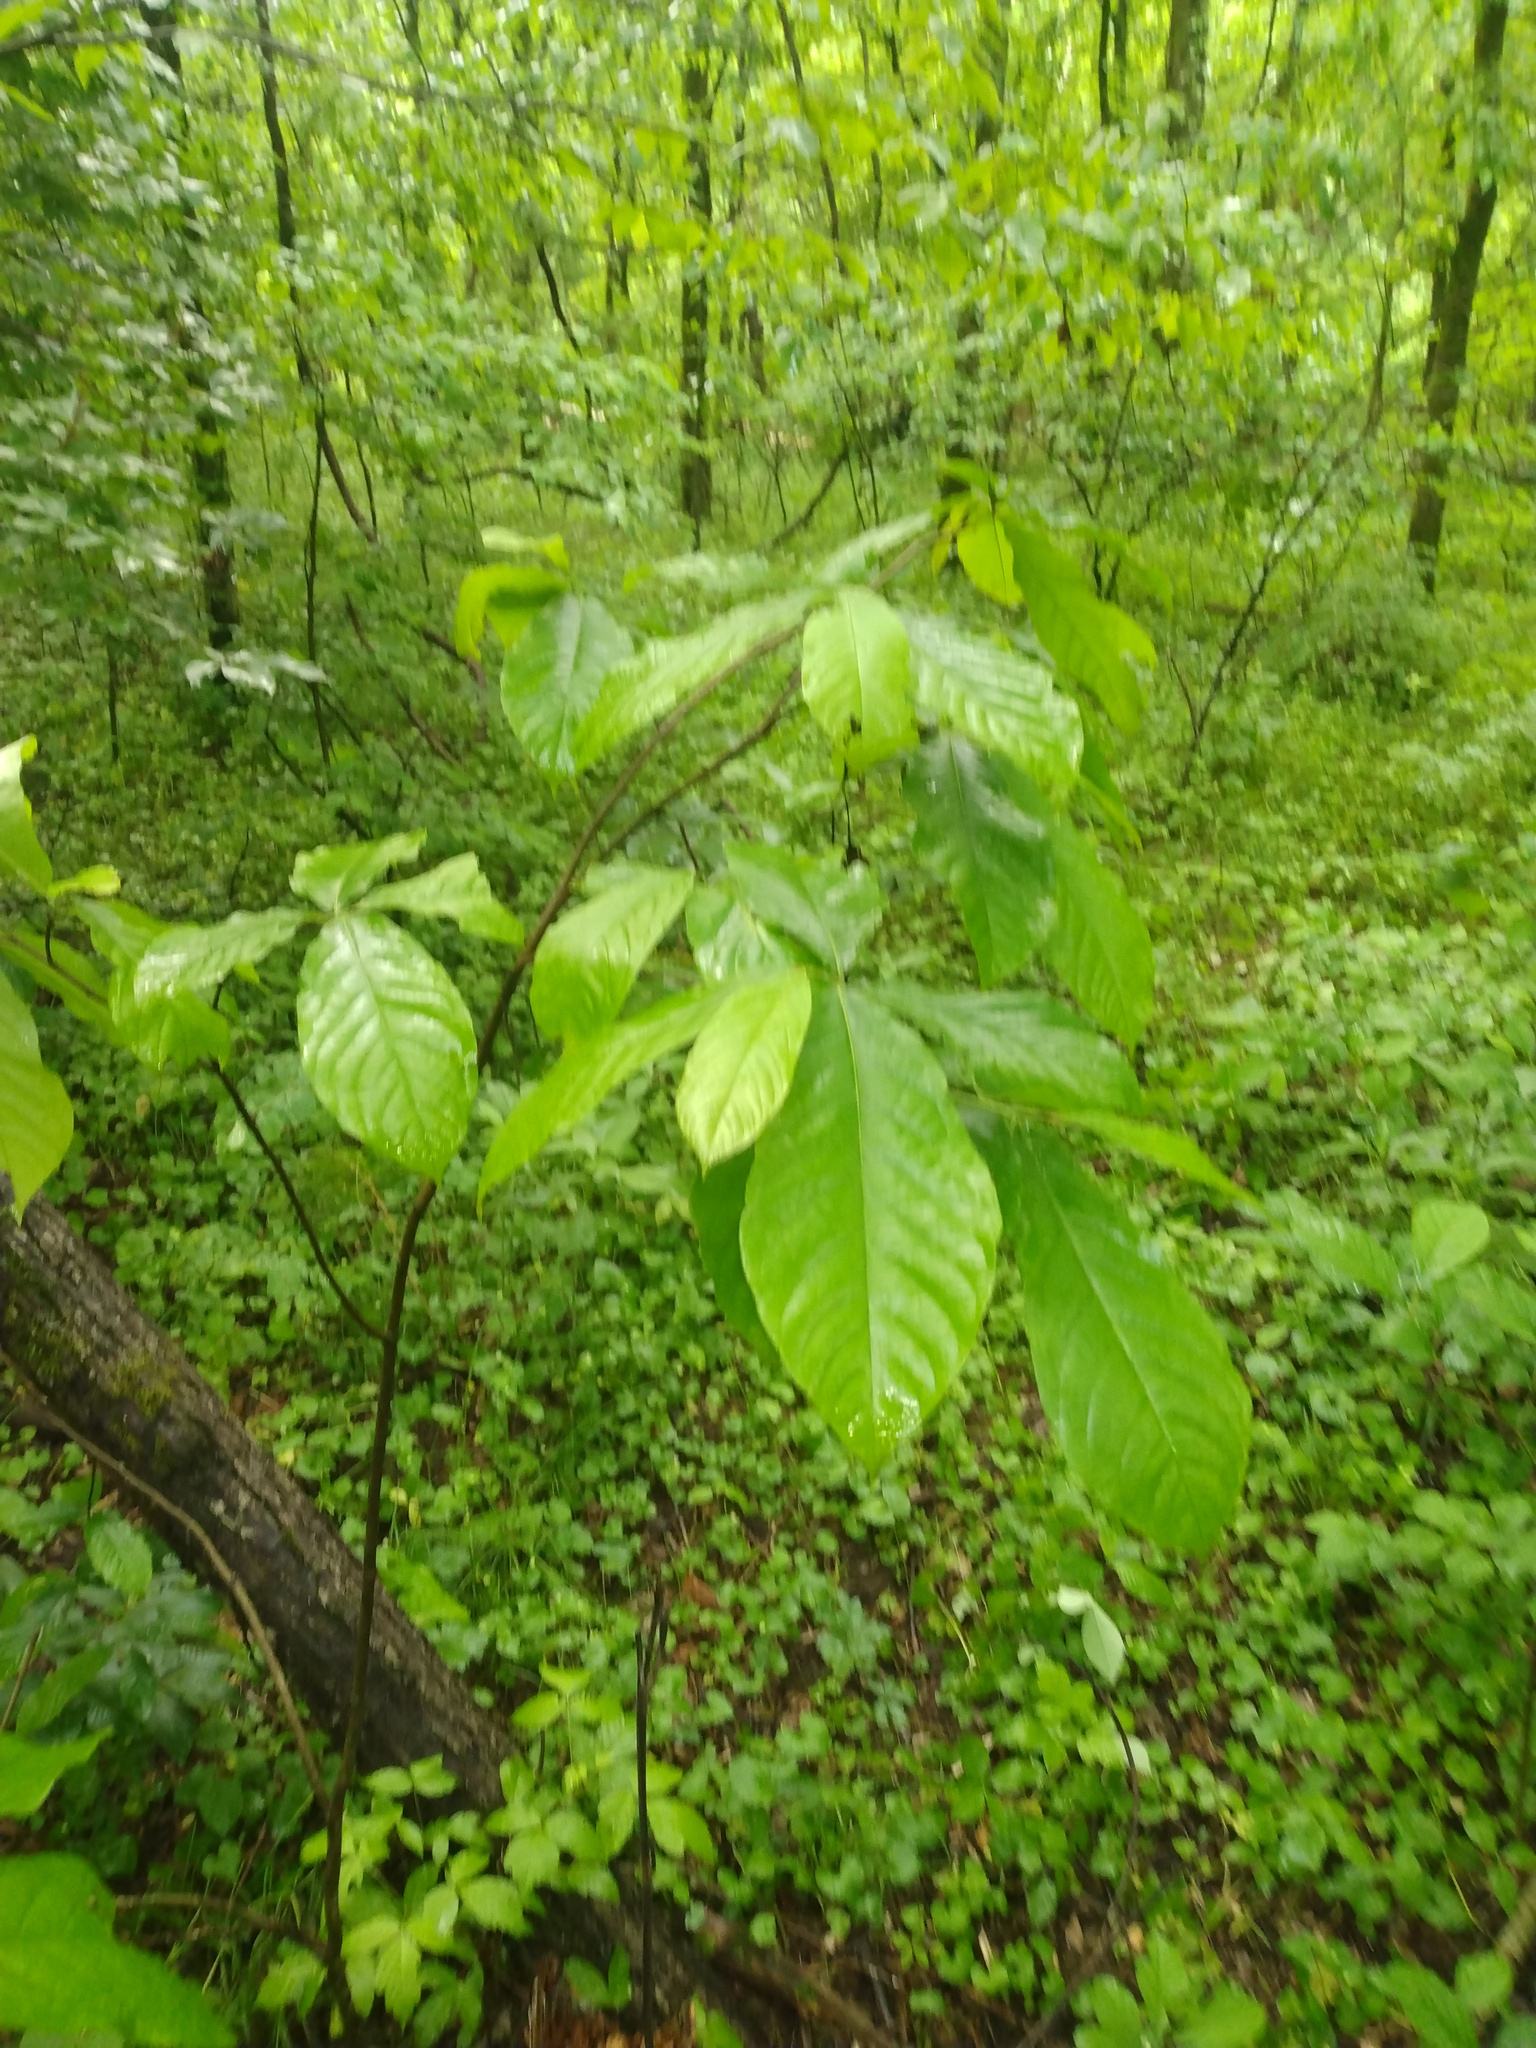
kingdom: Plantae
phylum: Tracheophyta
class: Magnoliopsida
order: Magnoliales
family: Annonaceae
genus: Asimina
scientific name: Asimina triloba
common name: Dog-banana
